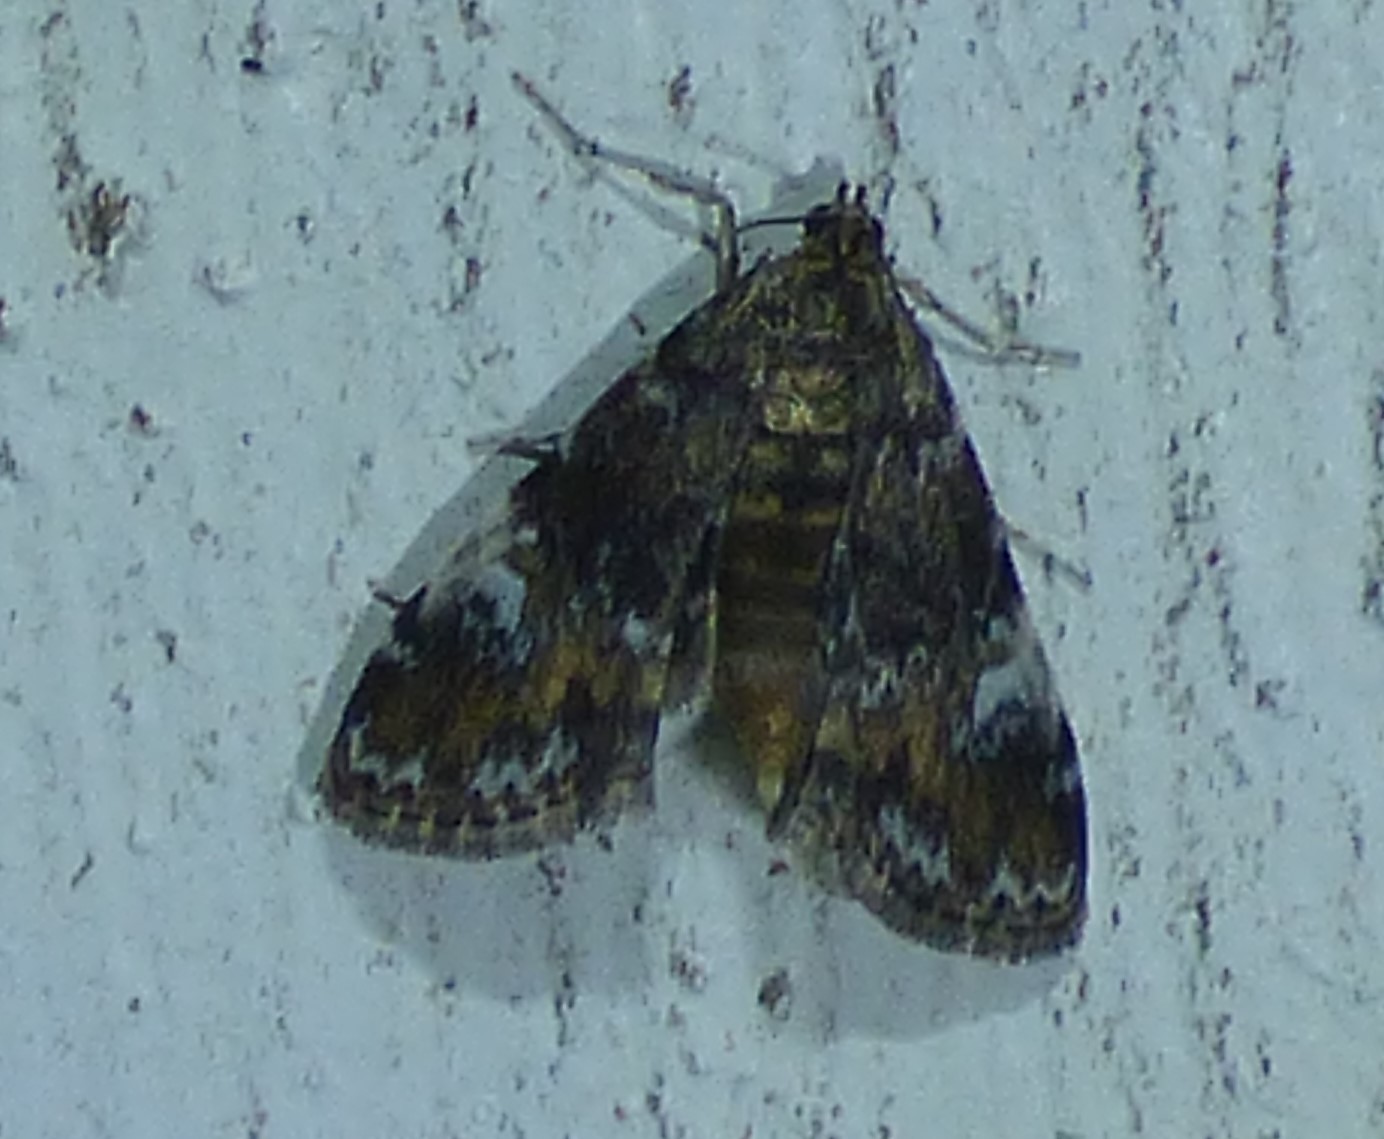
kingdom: Animalia
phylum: Arthropoda
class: Insecta
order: Lepidoptera
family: Crambidae
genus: Elophila
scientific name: Elophila obliteralis
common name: Waterlily leafcutter moth
